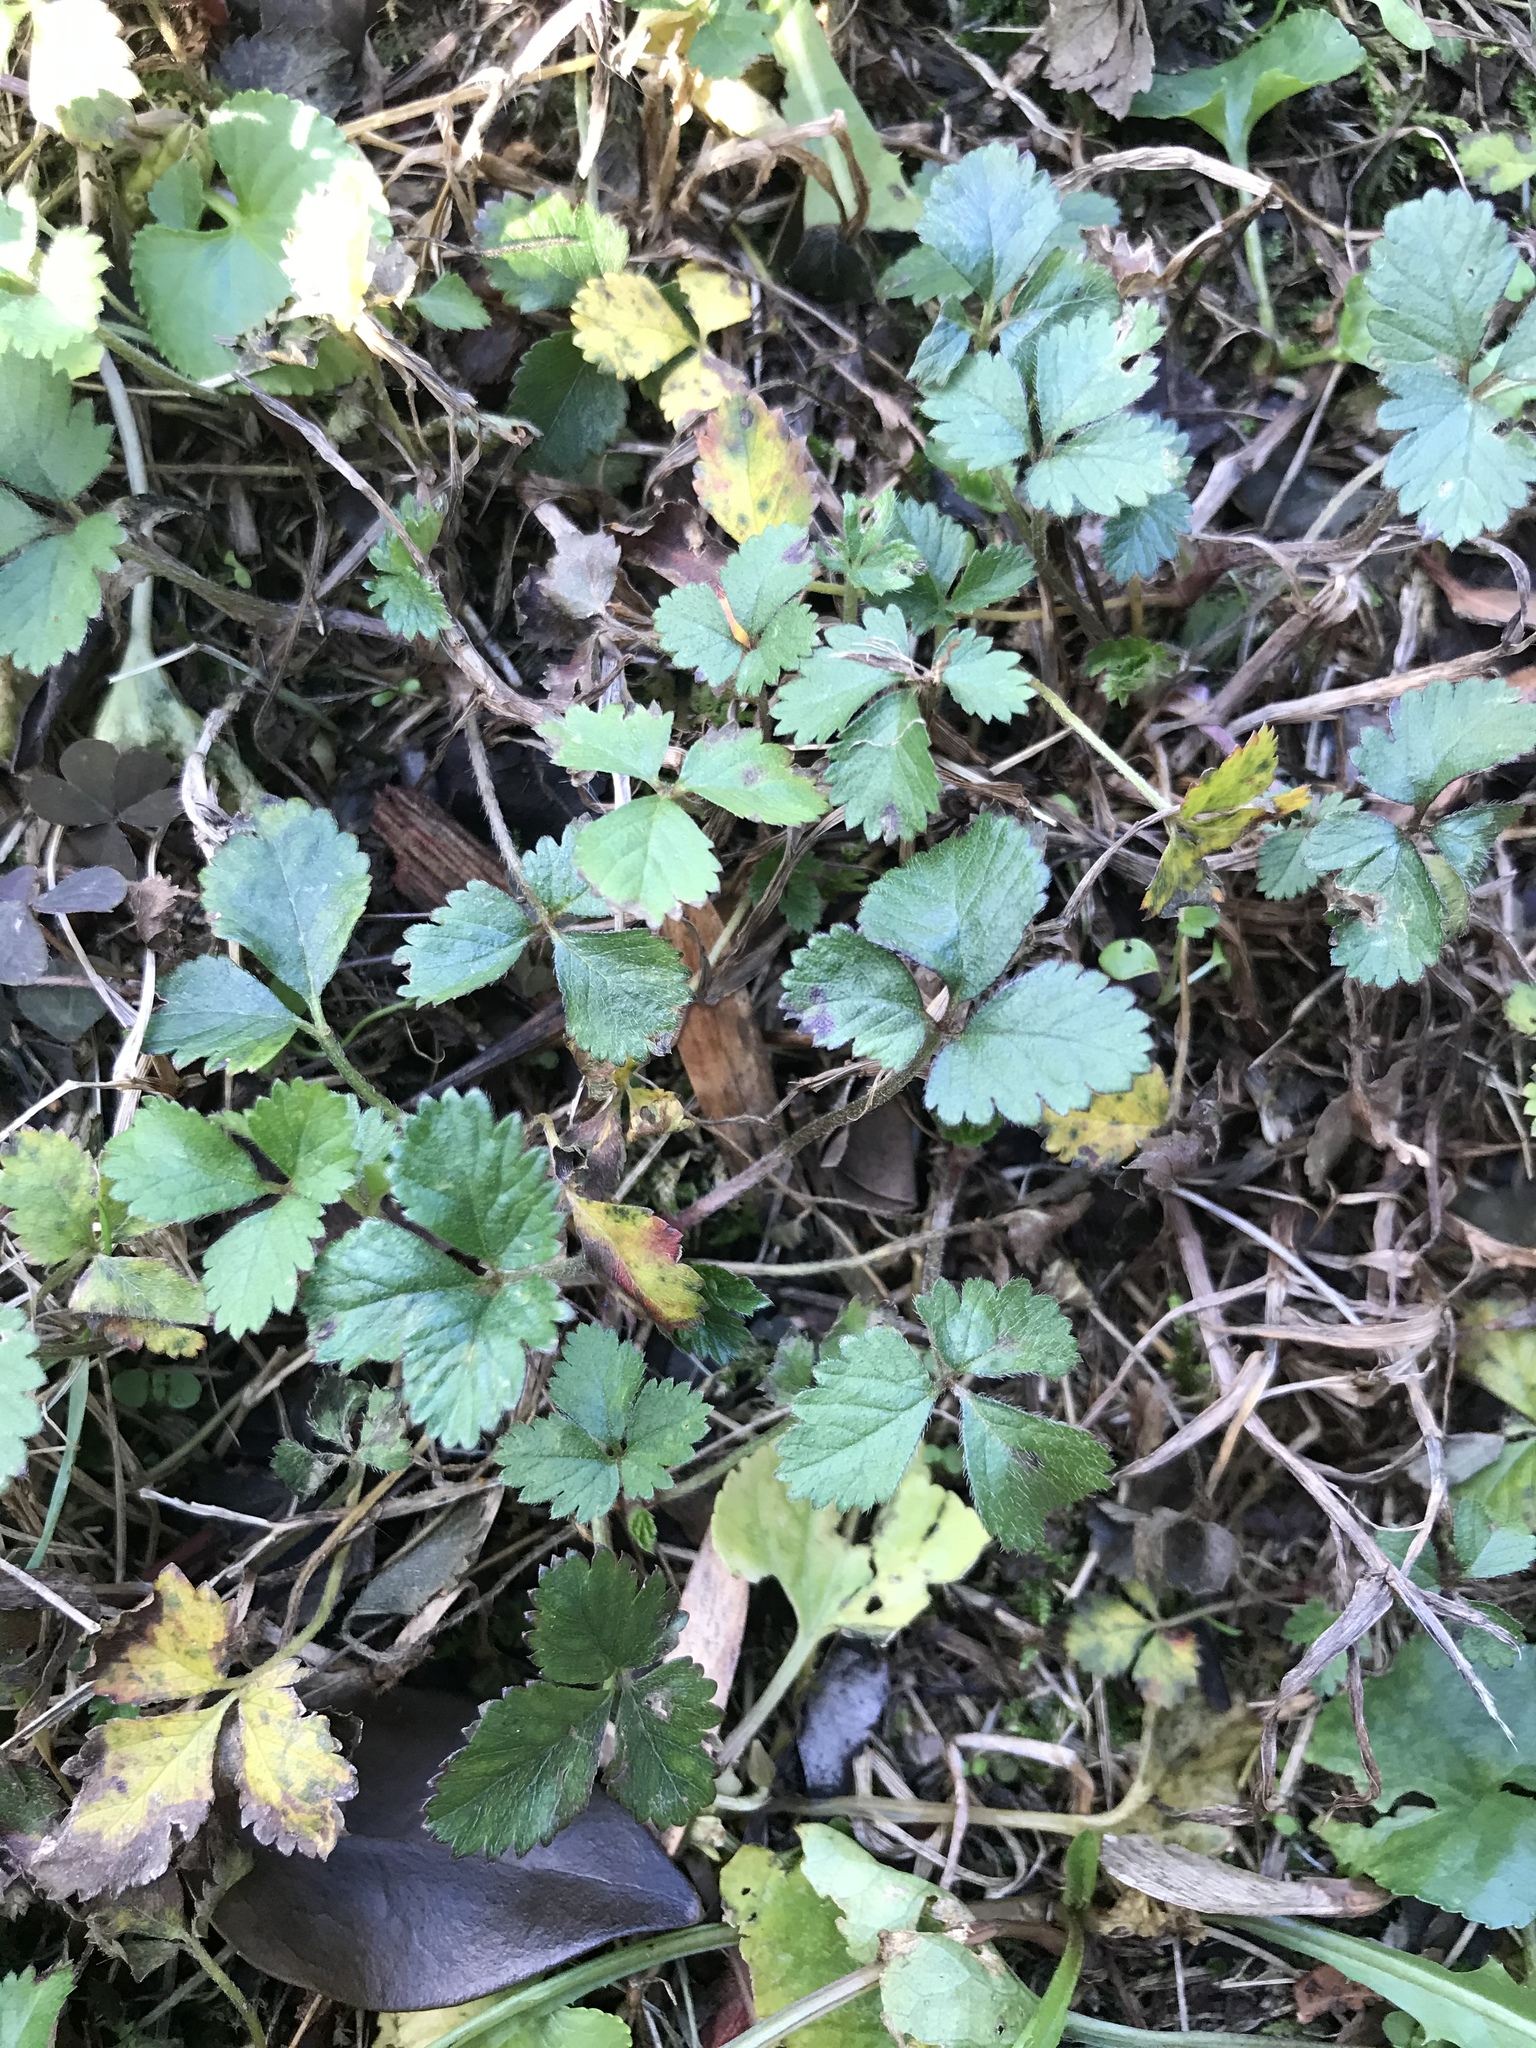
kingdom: Plantae
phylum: Tracheophyta
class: Magnoliopsida
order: Rosales
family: Rosaceae
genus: Potentilla
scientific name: Potentilla indica
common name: Yellow-flowered strawberry
